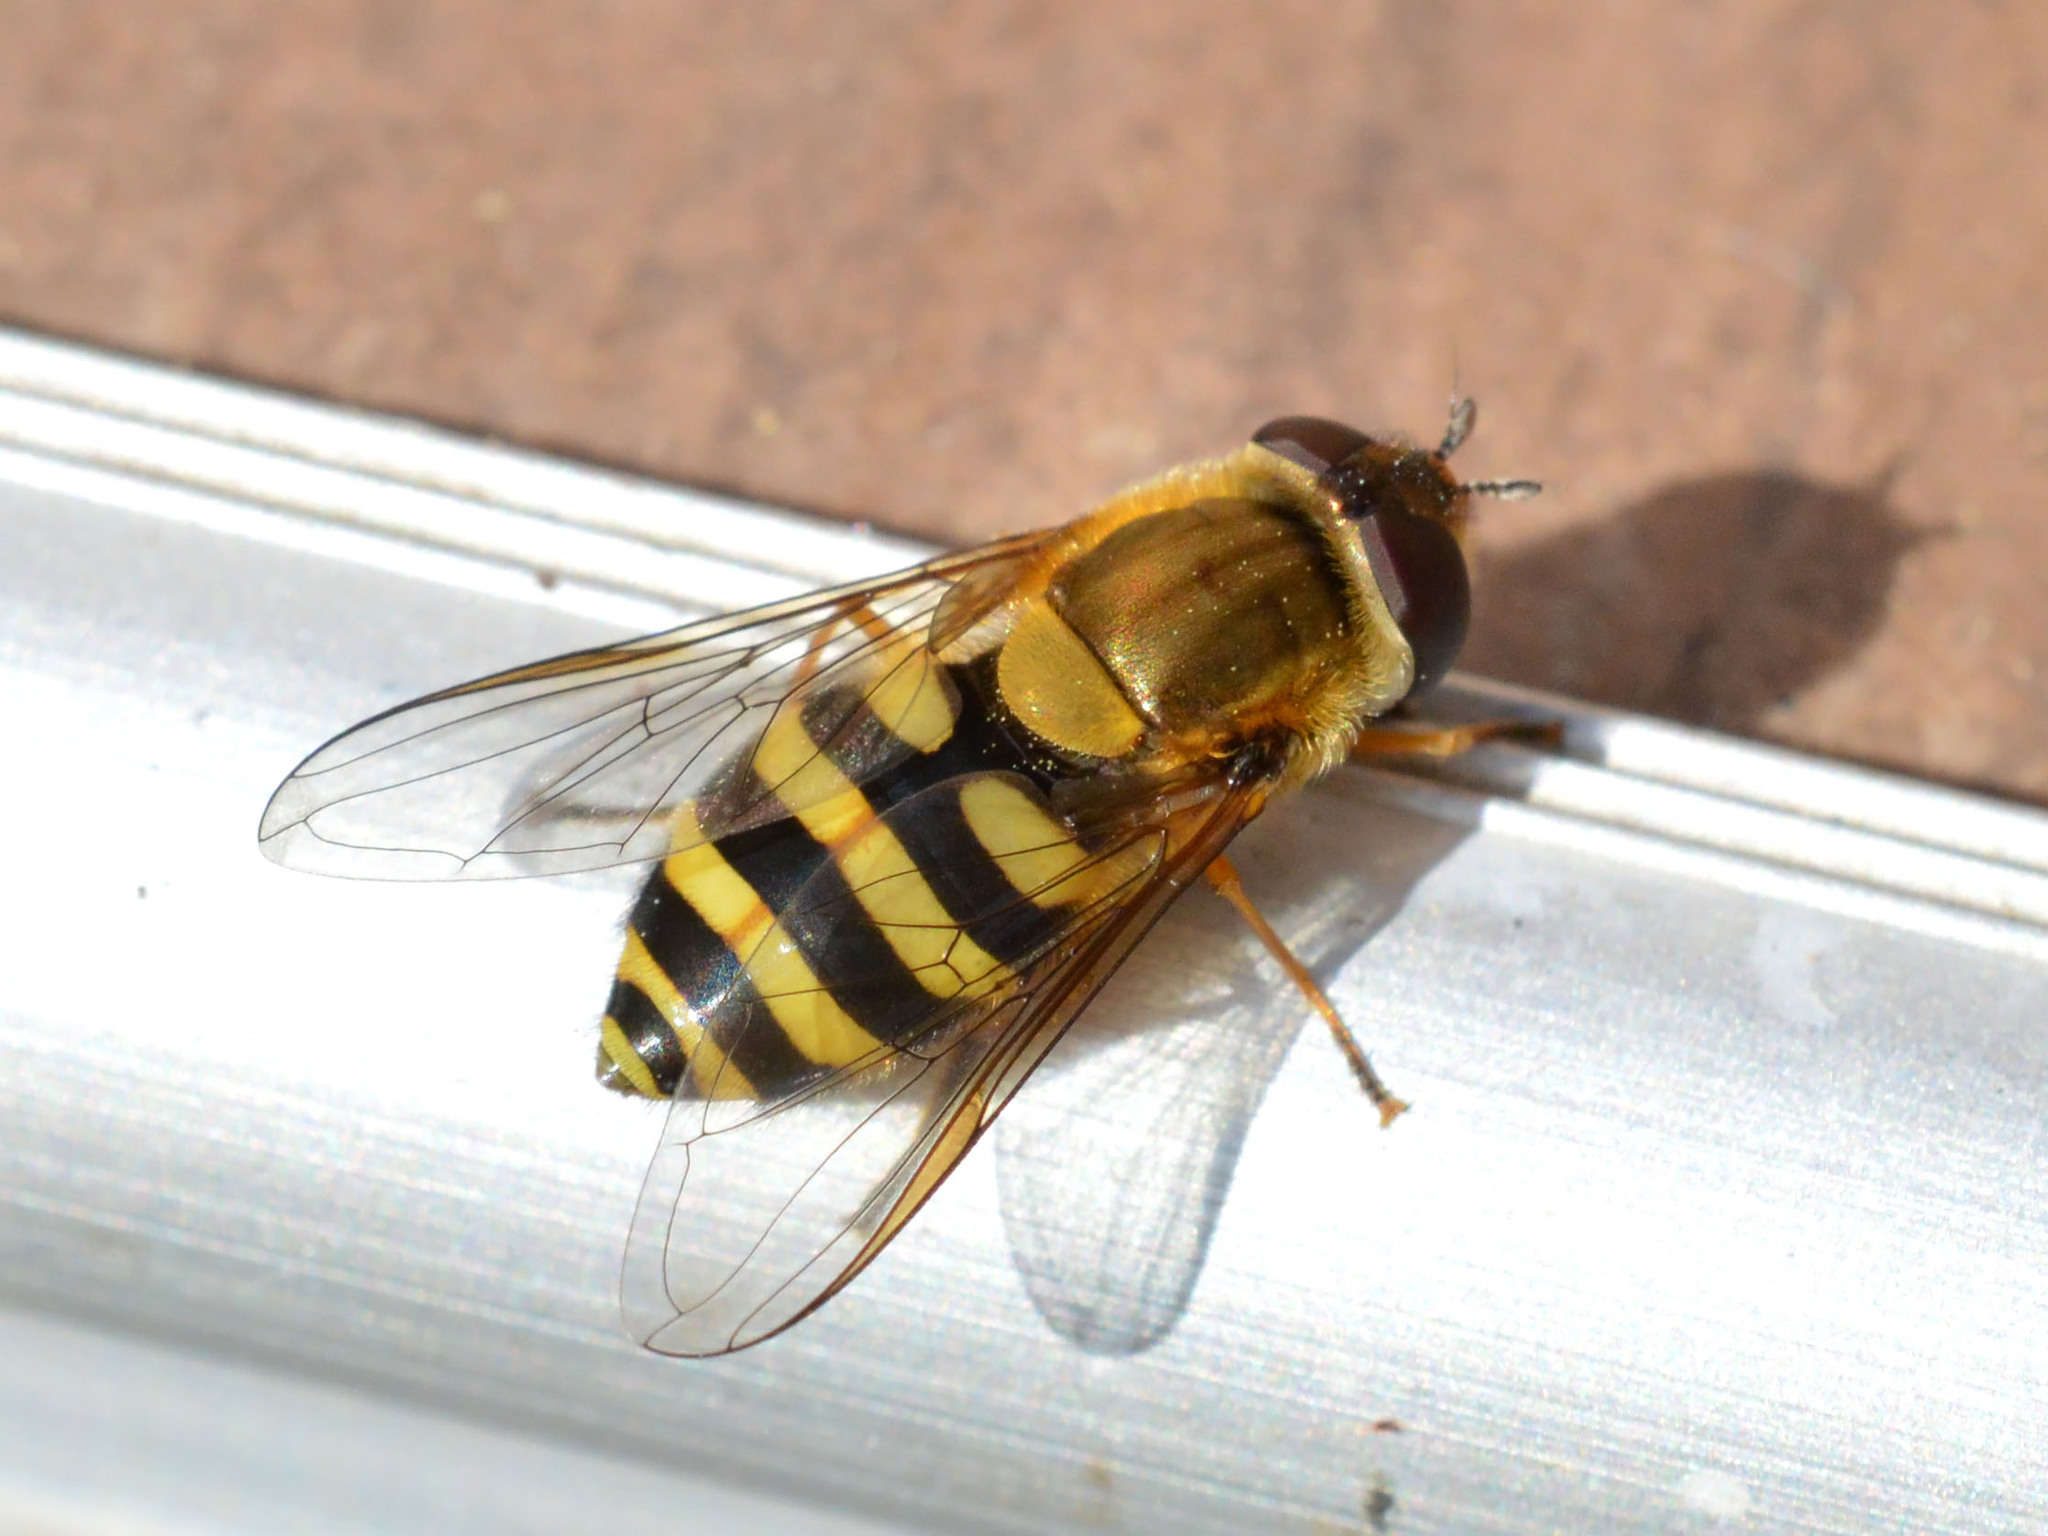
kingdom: Animalia
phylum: Arthropoda
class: Insecta
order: Diptera
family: Syrphidae
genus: Syrphus
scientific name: Syrphus ribesii
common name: Common flower fly
